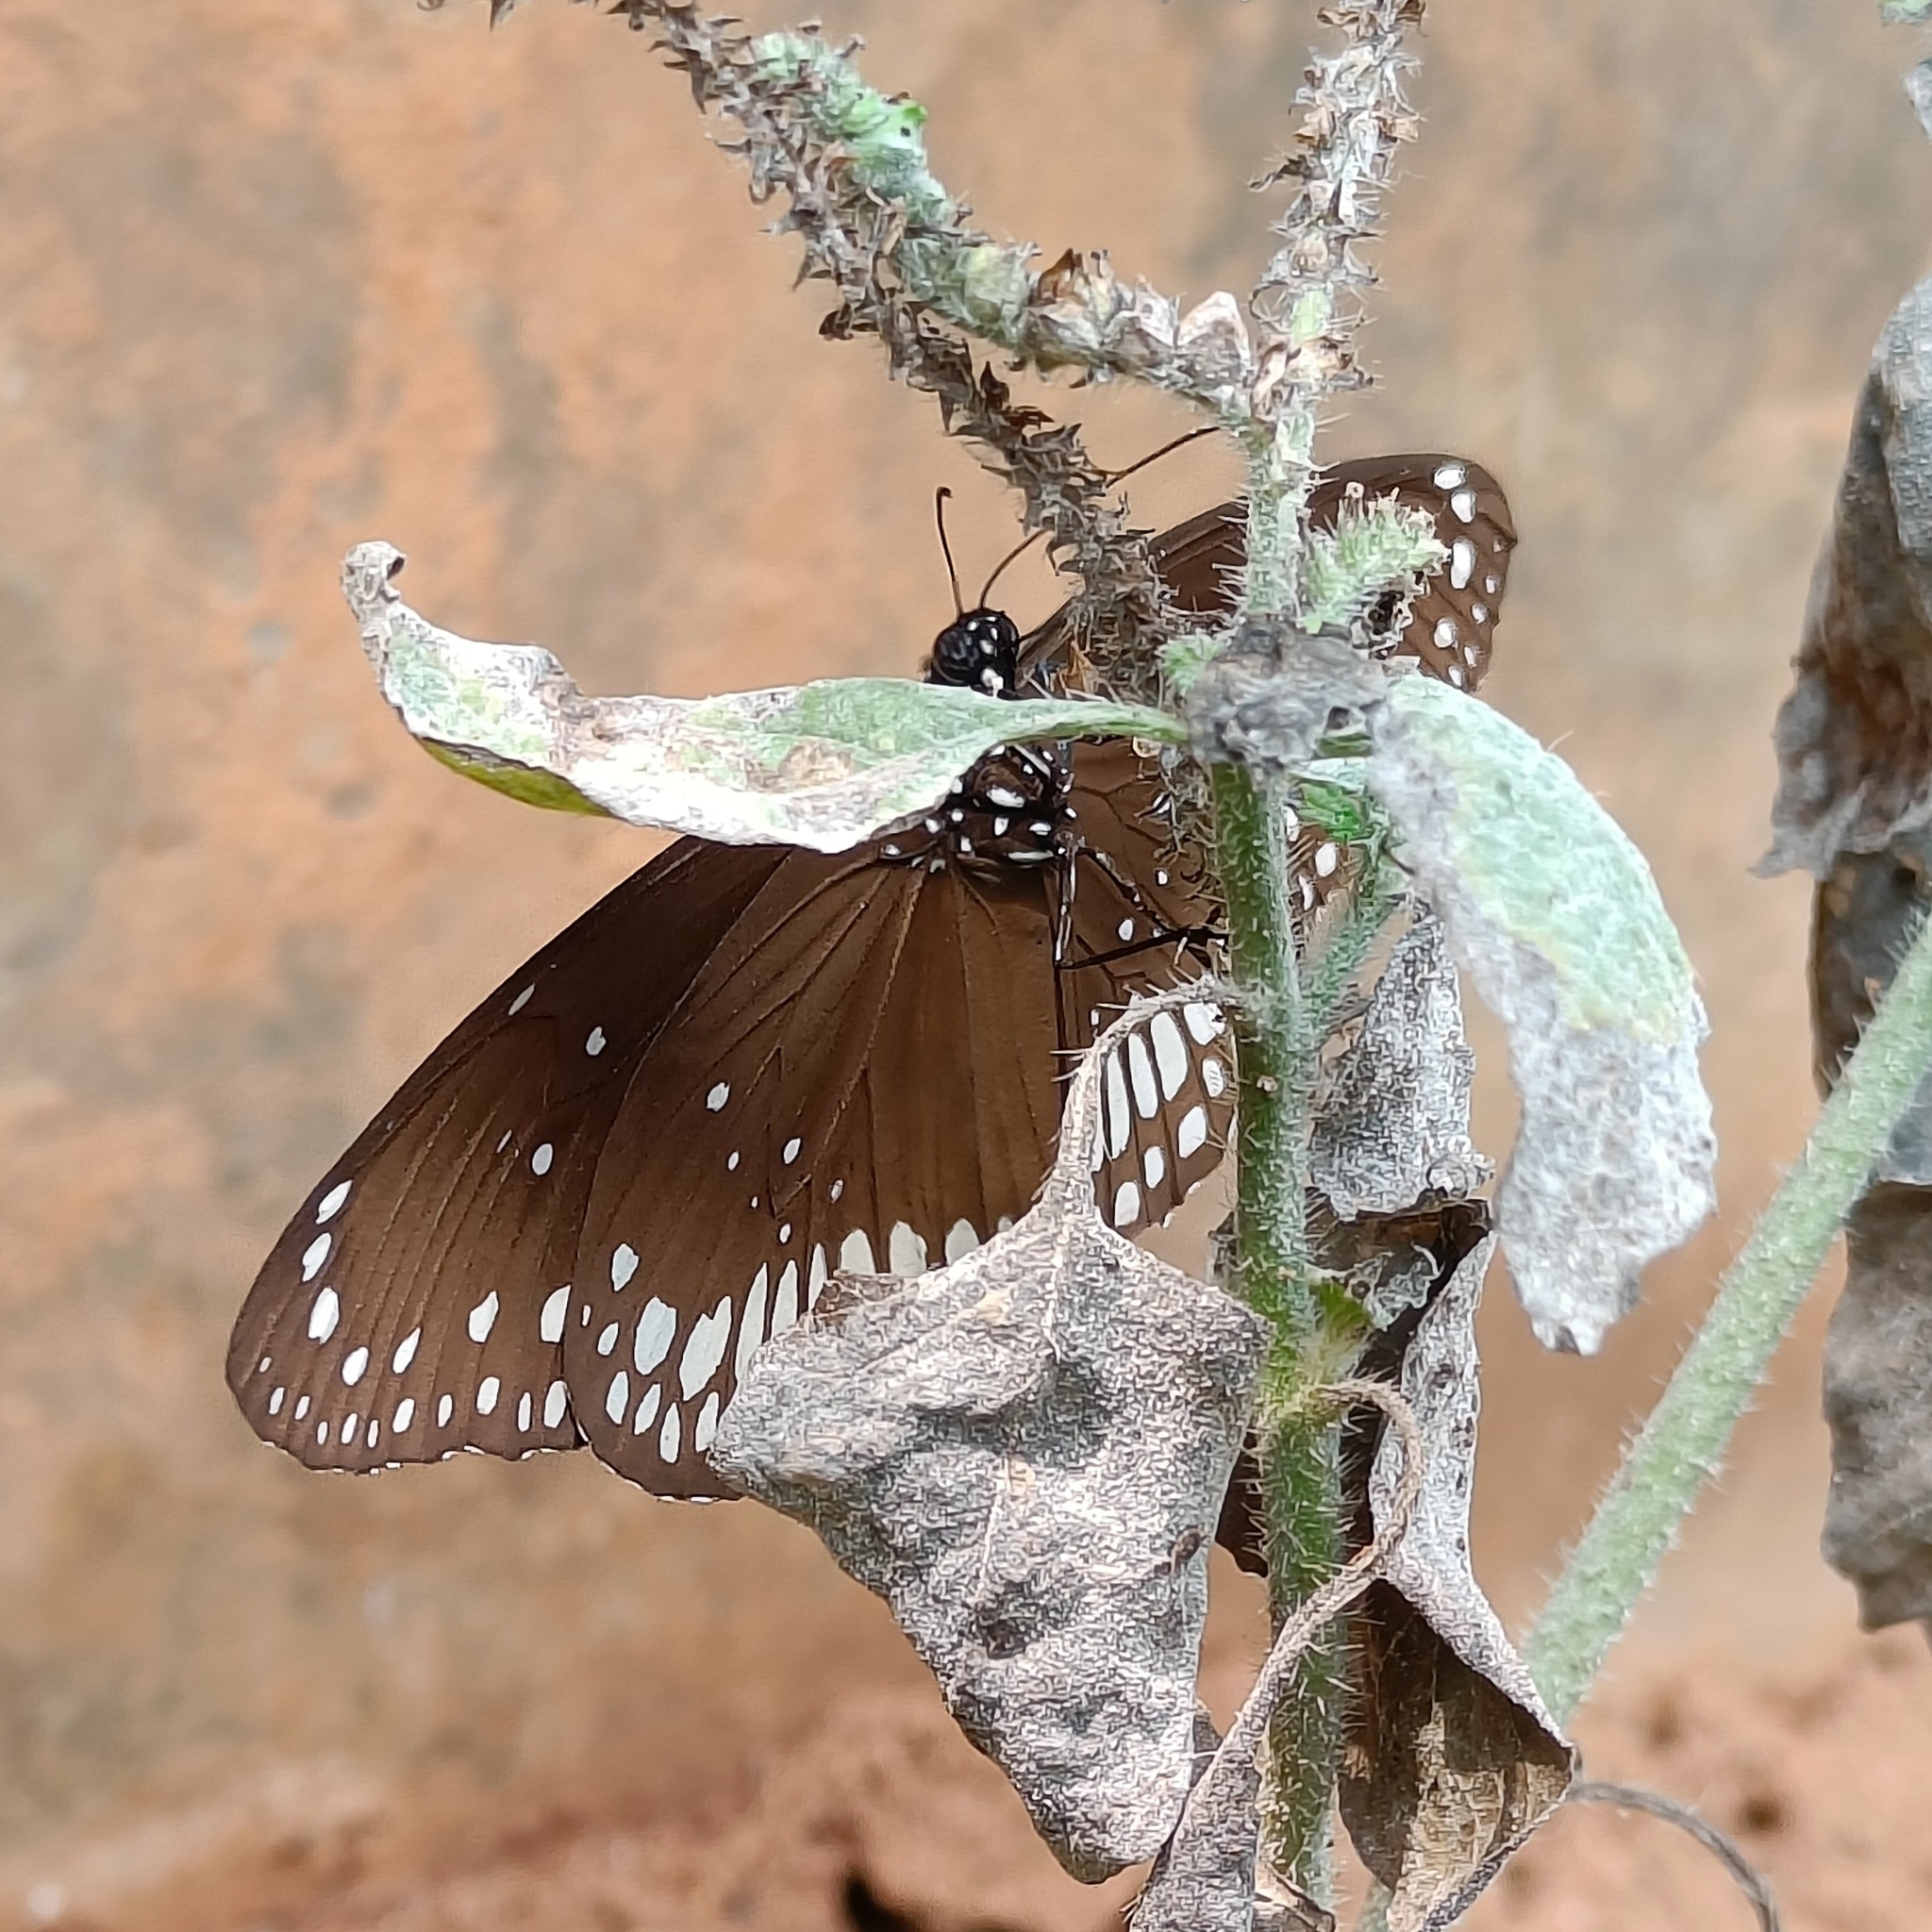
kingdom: Animalia
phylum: Arthropoda
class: Insecta
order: Lepidoptera
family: Nymphalidae
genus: Euploea
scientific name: Euploea core
